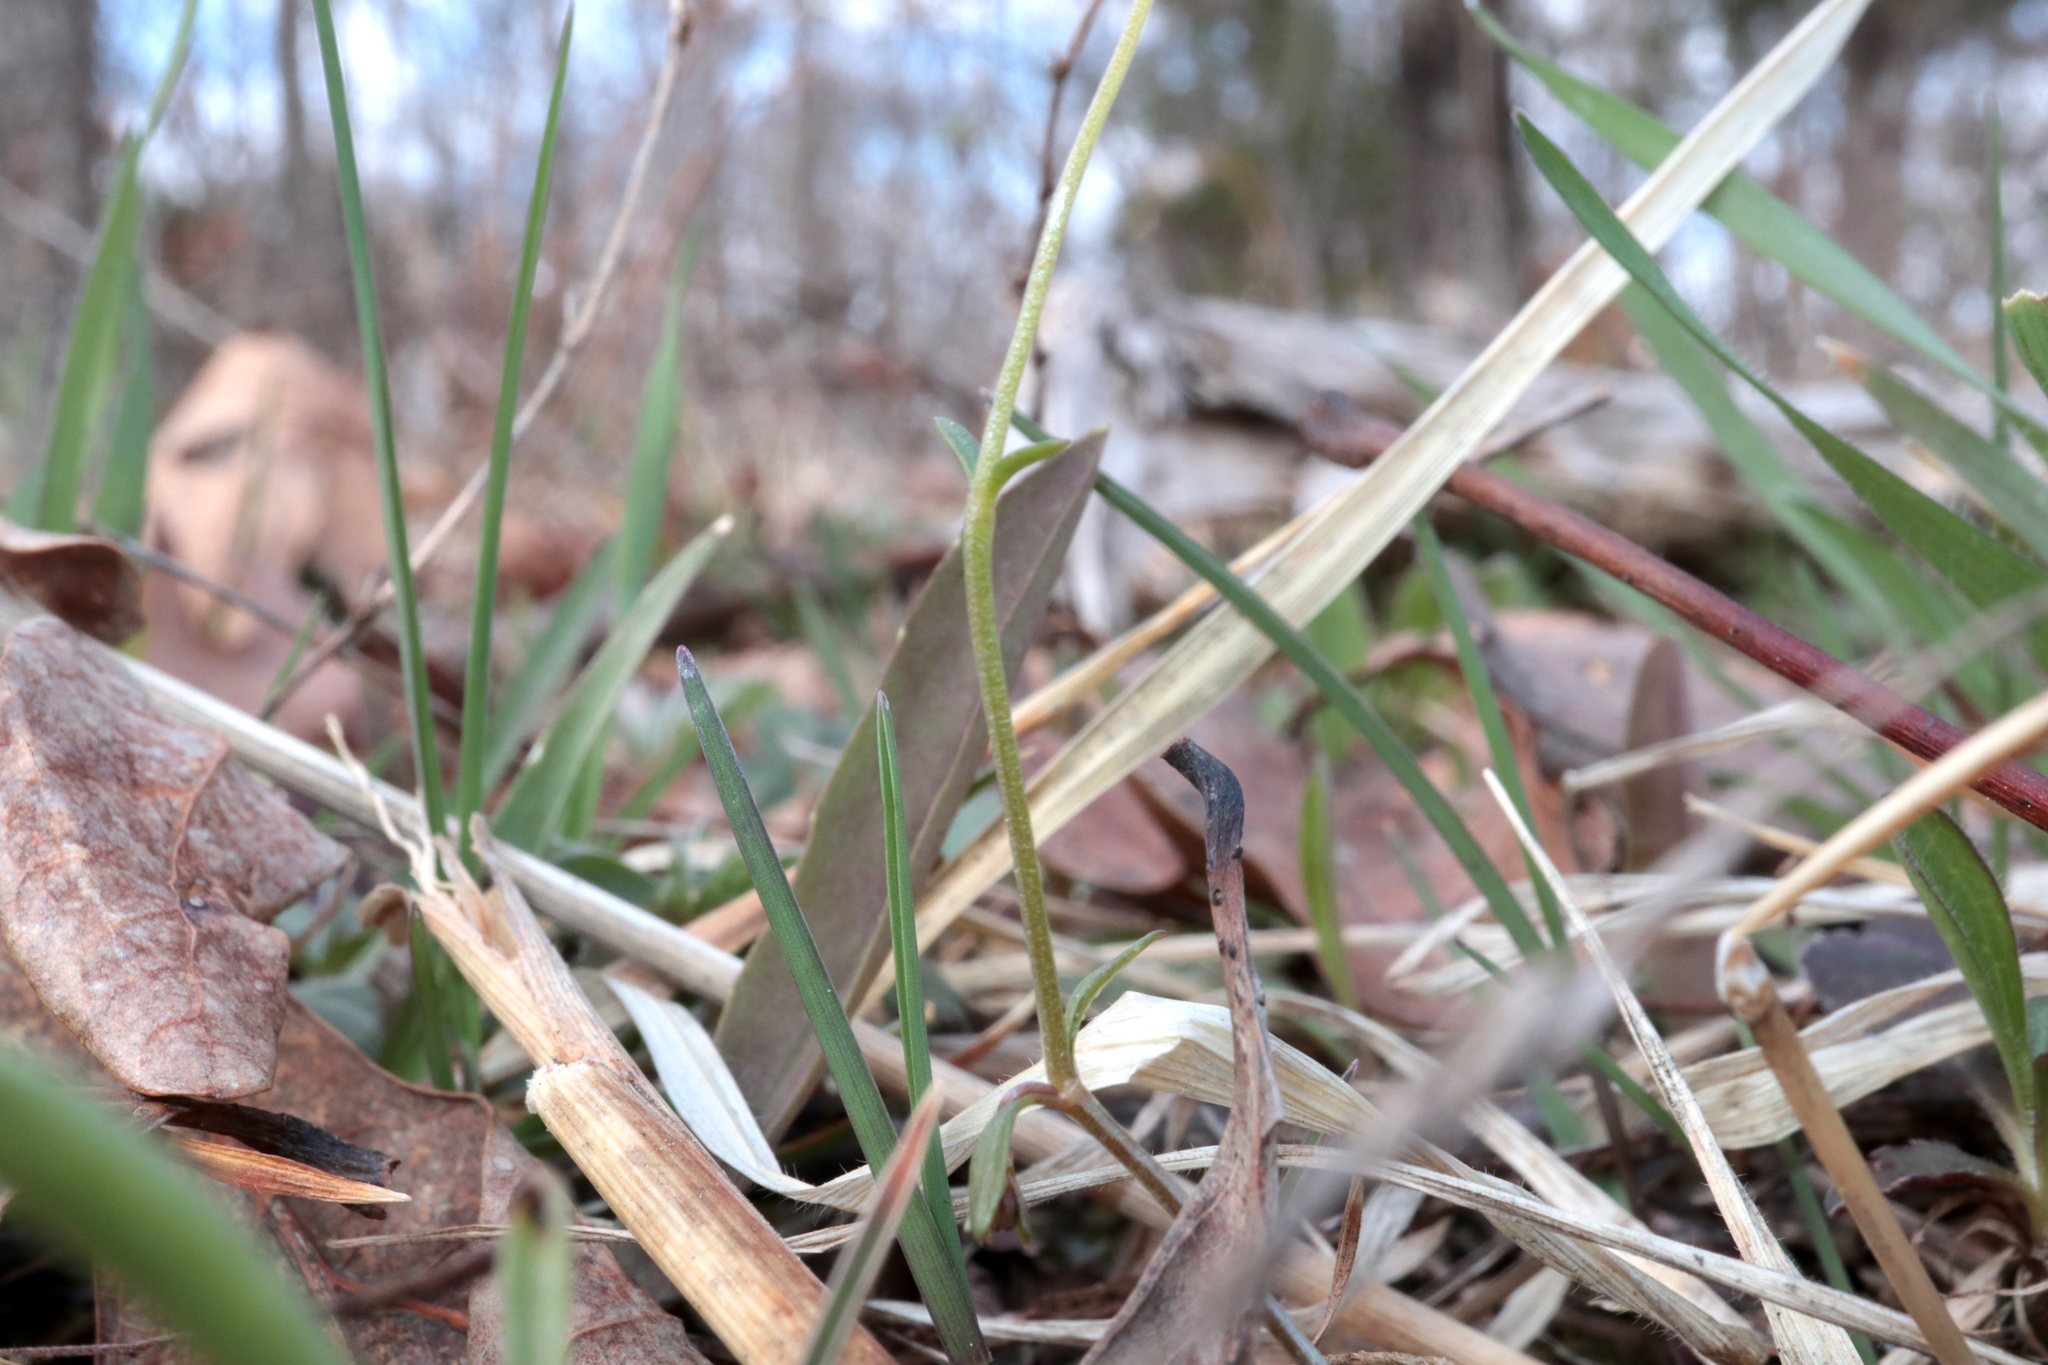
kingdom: Plantae
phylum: Tracheophyta
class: Magnoliopsida
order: Gentianales
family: Rubiaceae
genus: Houstonia
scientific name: Houstonia caerulea
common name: Bluets
